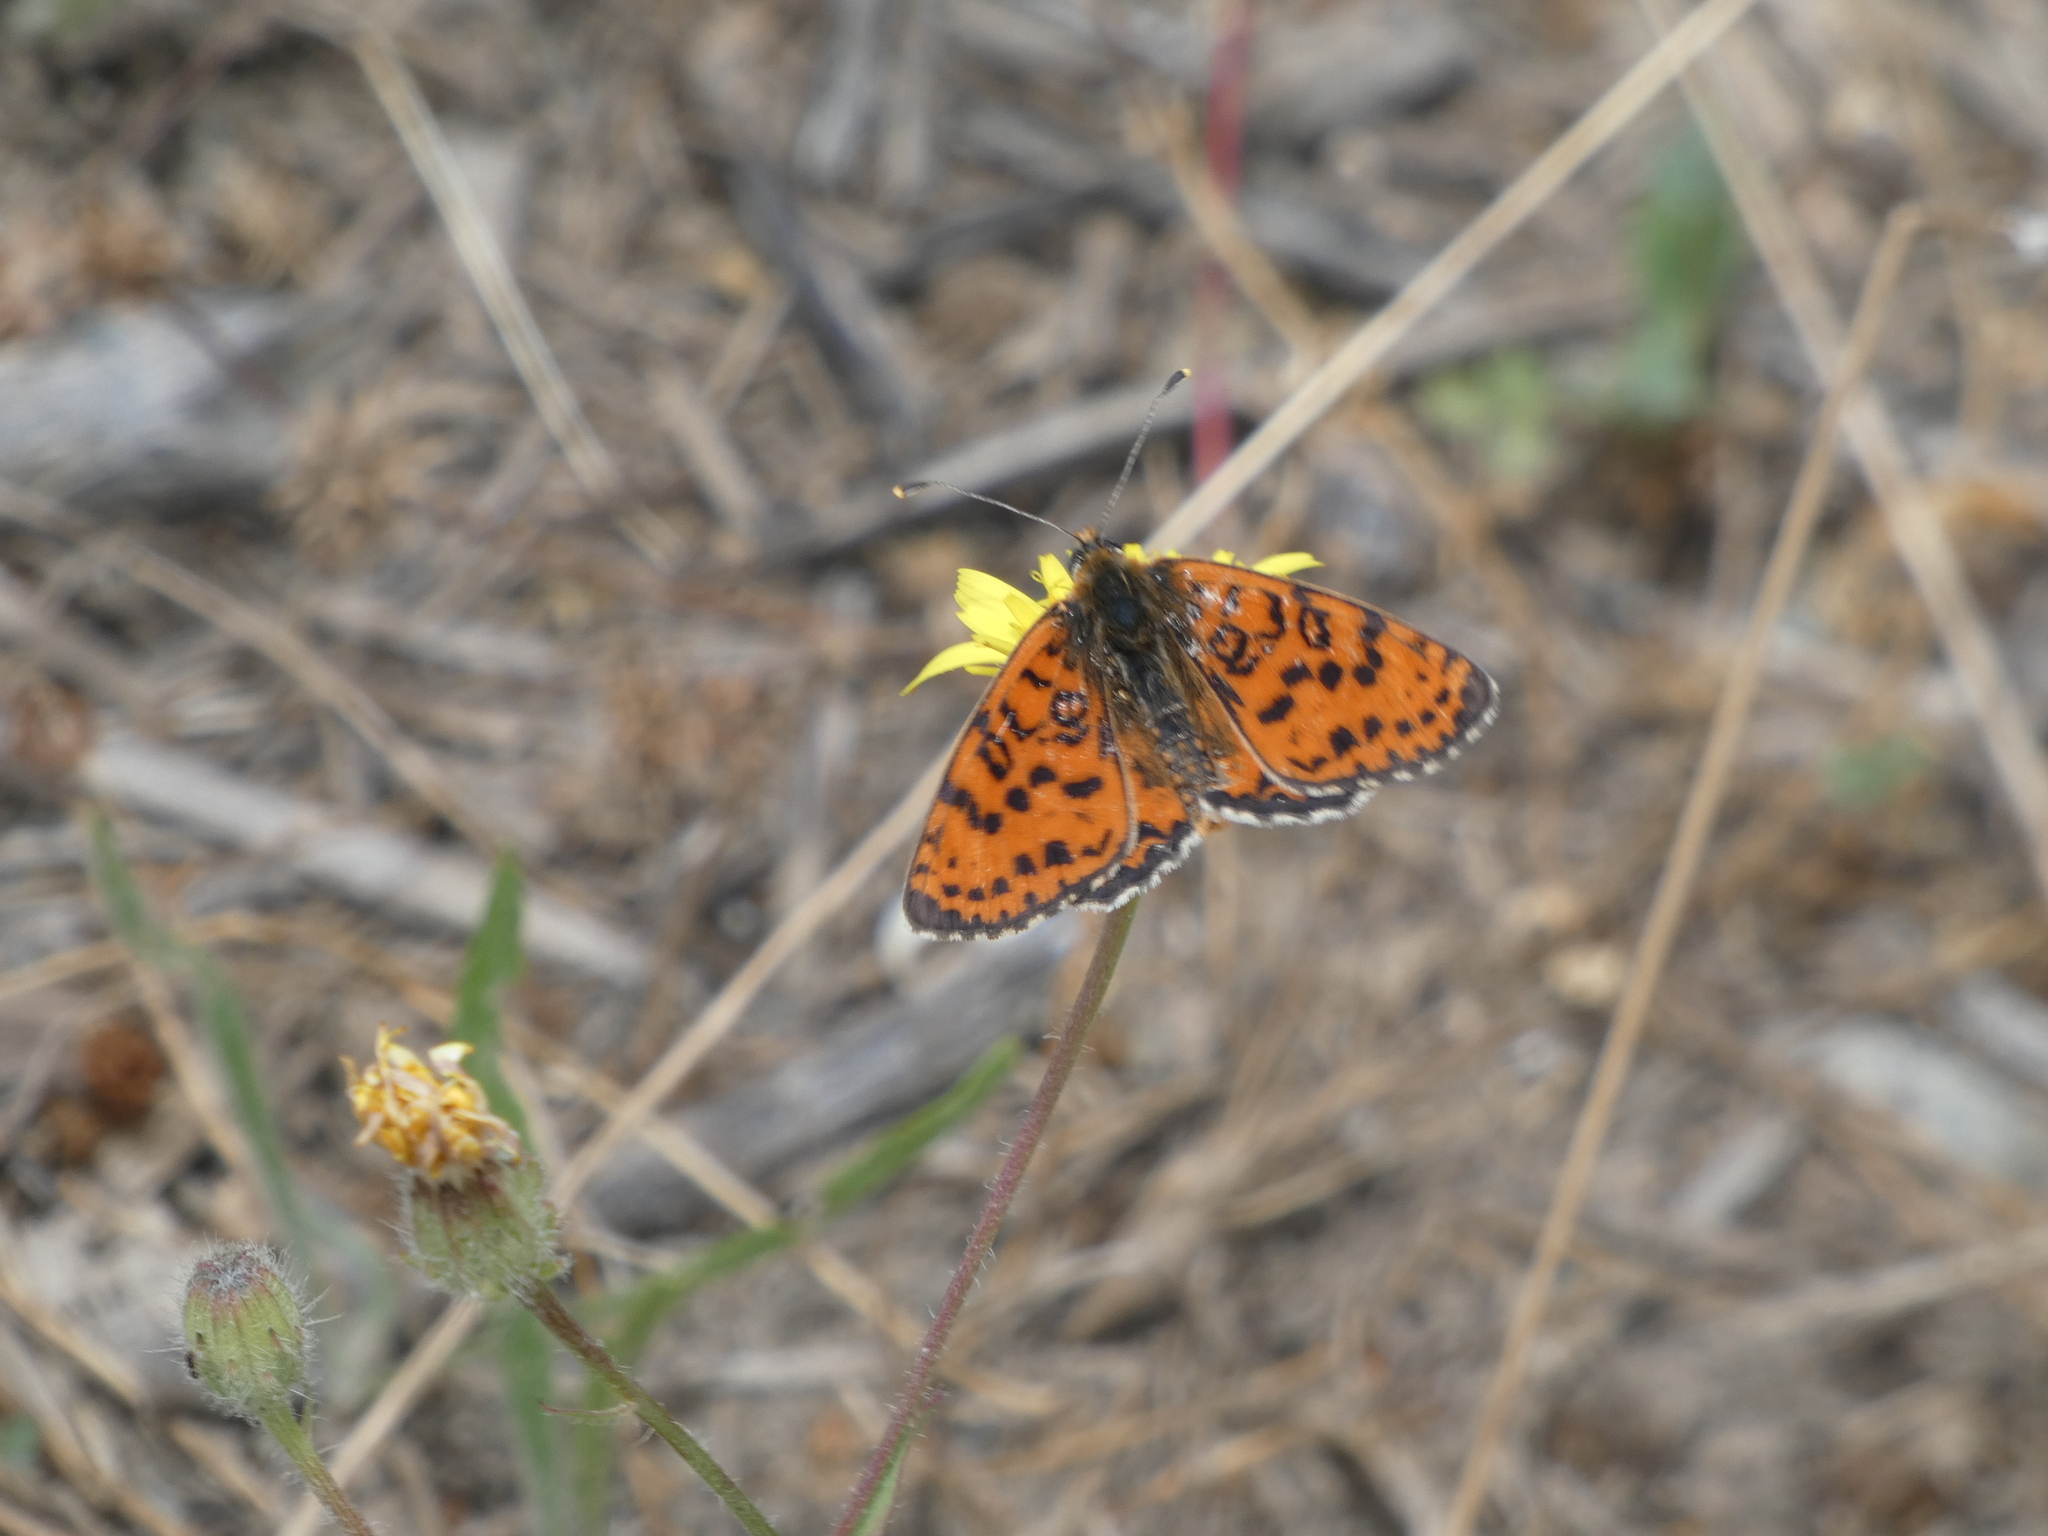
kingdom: Animalia
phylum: Arthropoda
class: Insecta
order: Lepidoptera
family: Nymphalidae
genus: Melitaea
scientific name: Melitaea didyma
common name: Spotted fritillary
